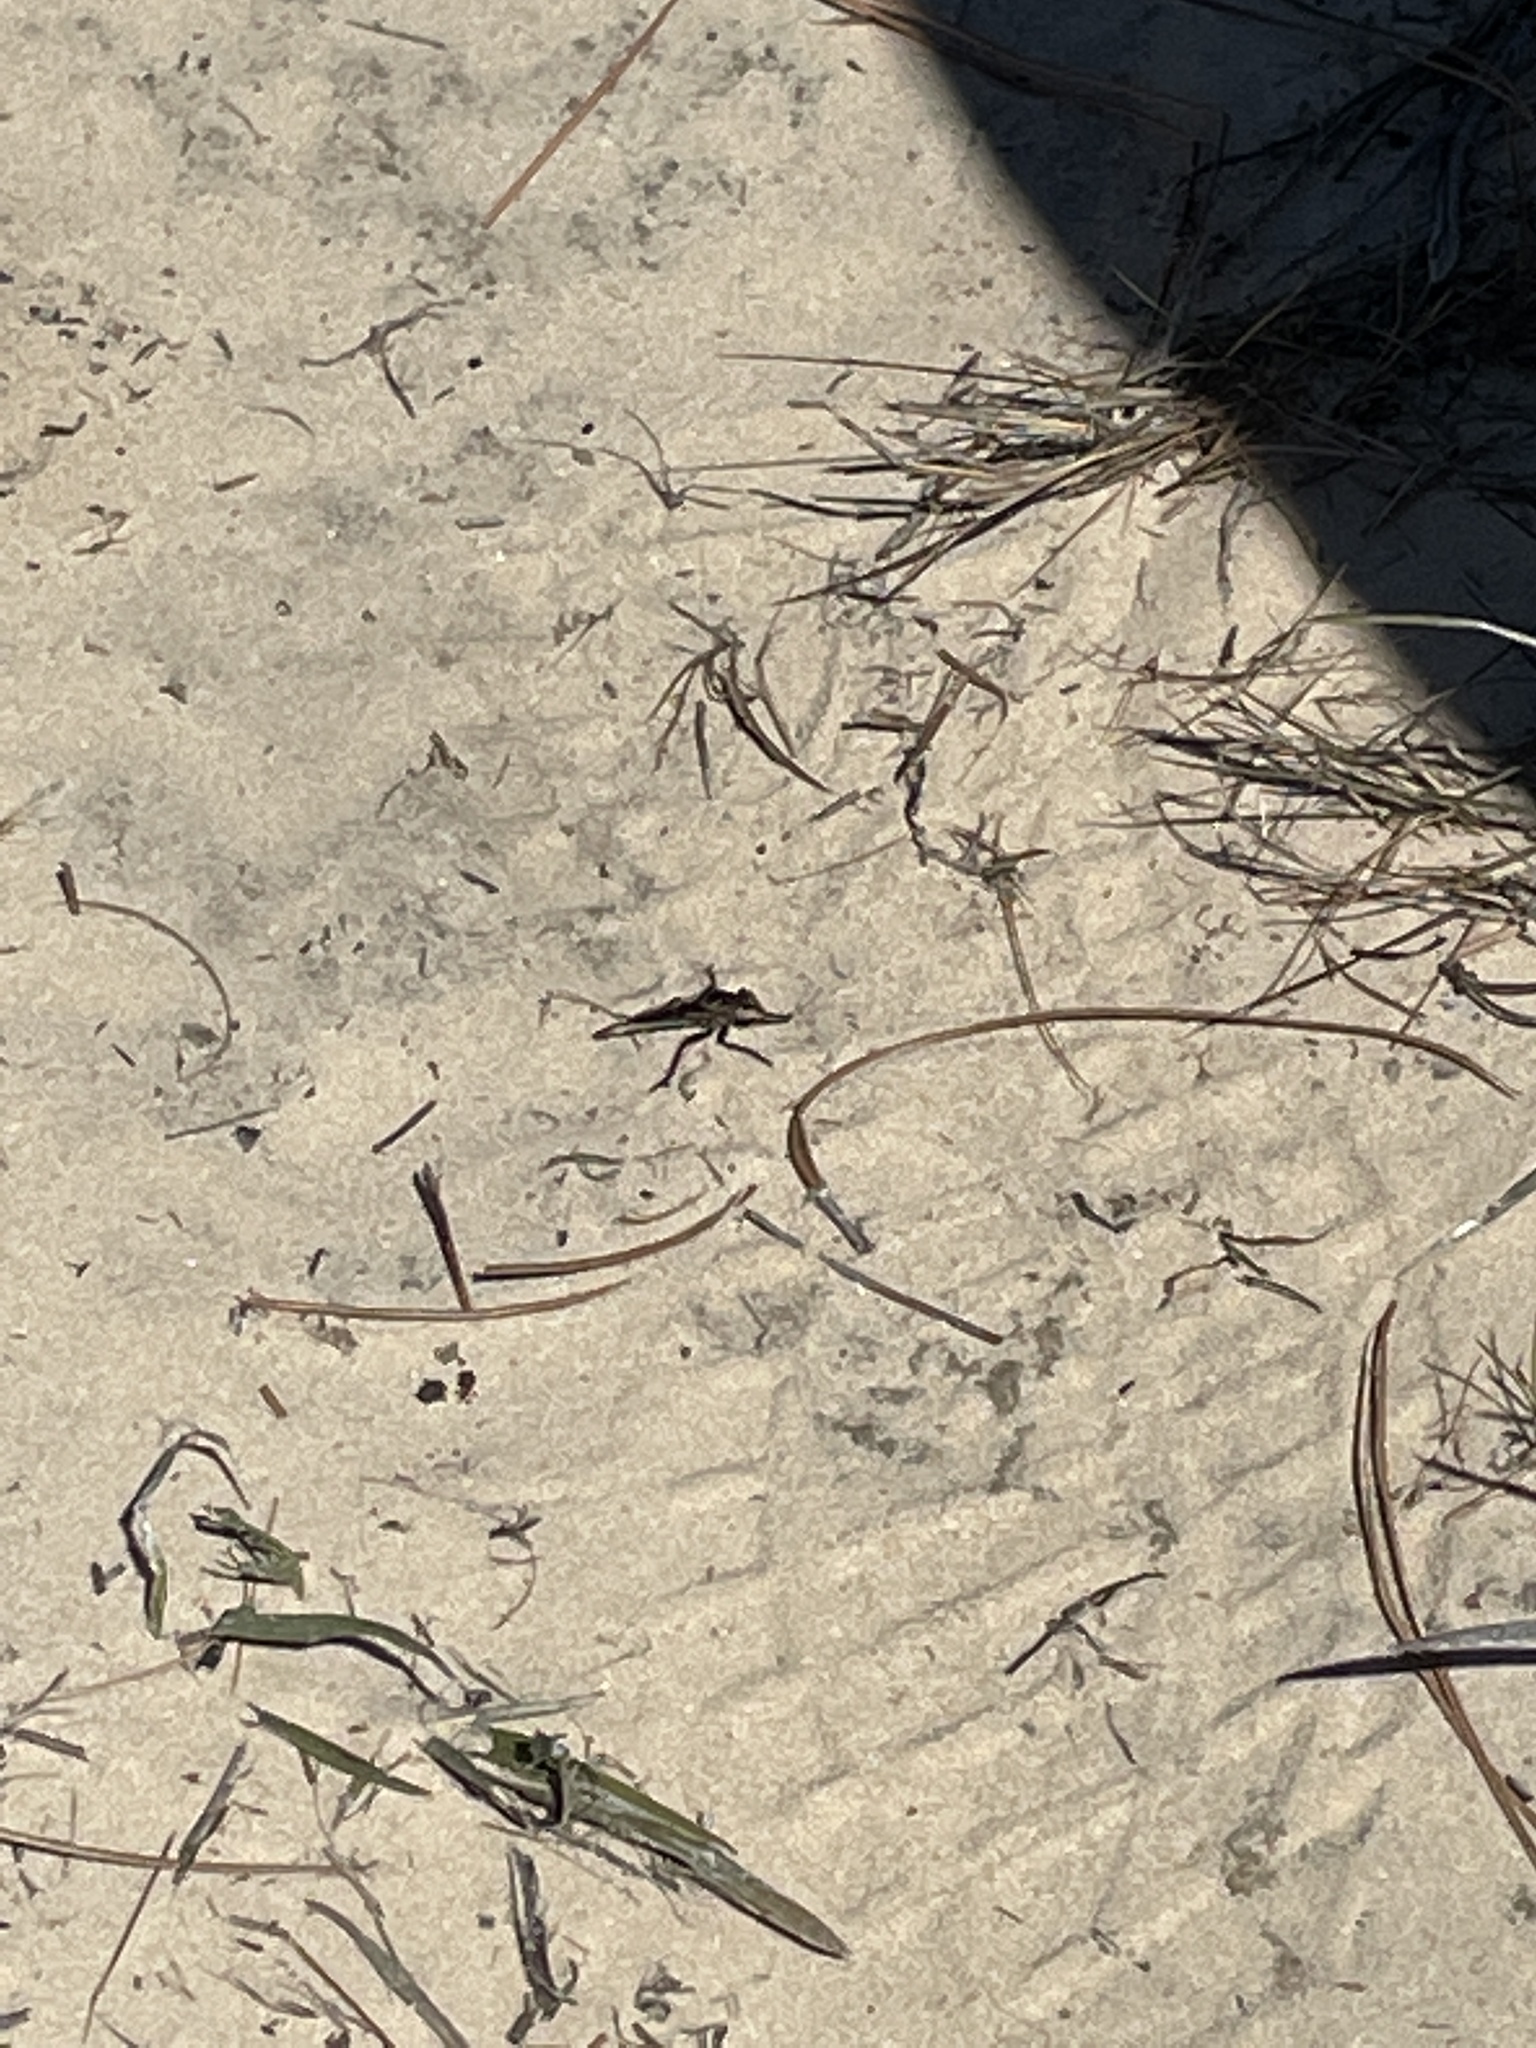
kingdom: Animalia
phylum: Arthropoda
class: Insecta
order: Diptera
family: Asilidae
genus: Proctacanthus
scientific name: Proctacanthus brevipennis
